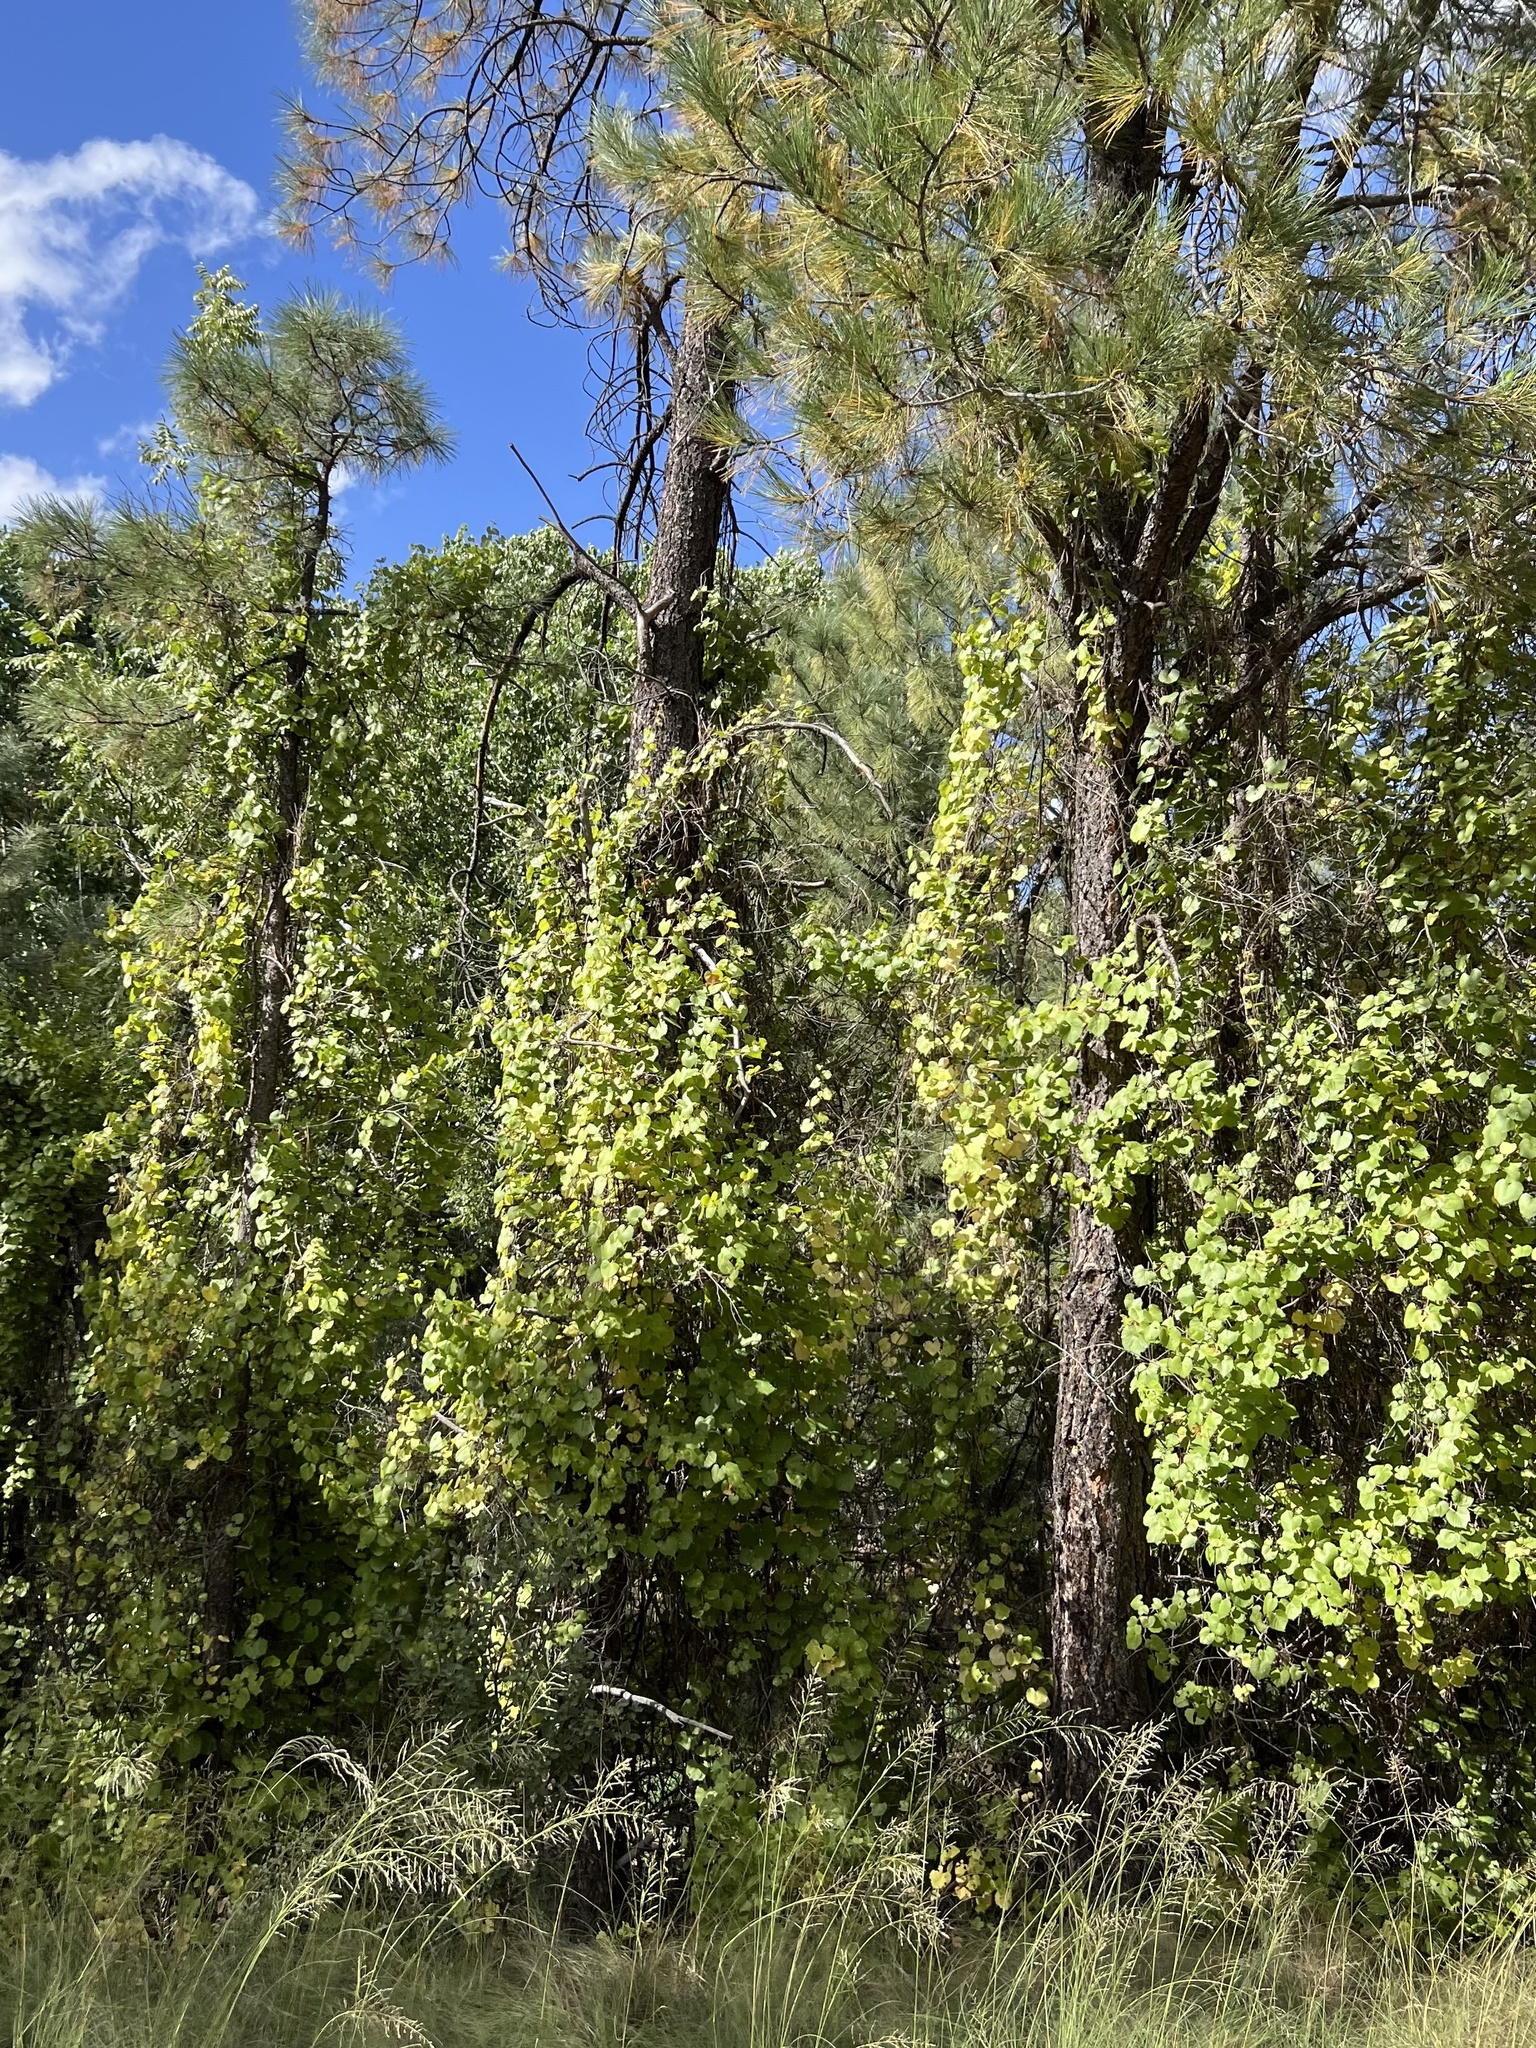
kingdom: Plantae
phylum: Tracheophyta
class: Magnoliopsida
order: Vitales
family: Vitaceae
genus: Vitis
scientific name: Vitis arizonica
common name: Canyon grape
